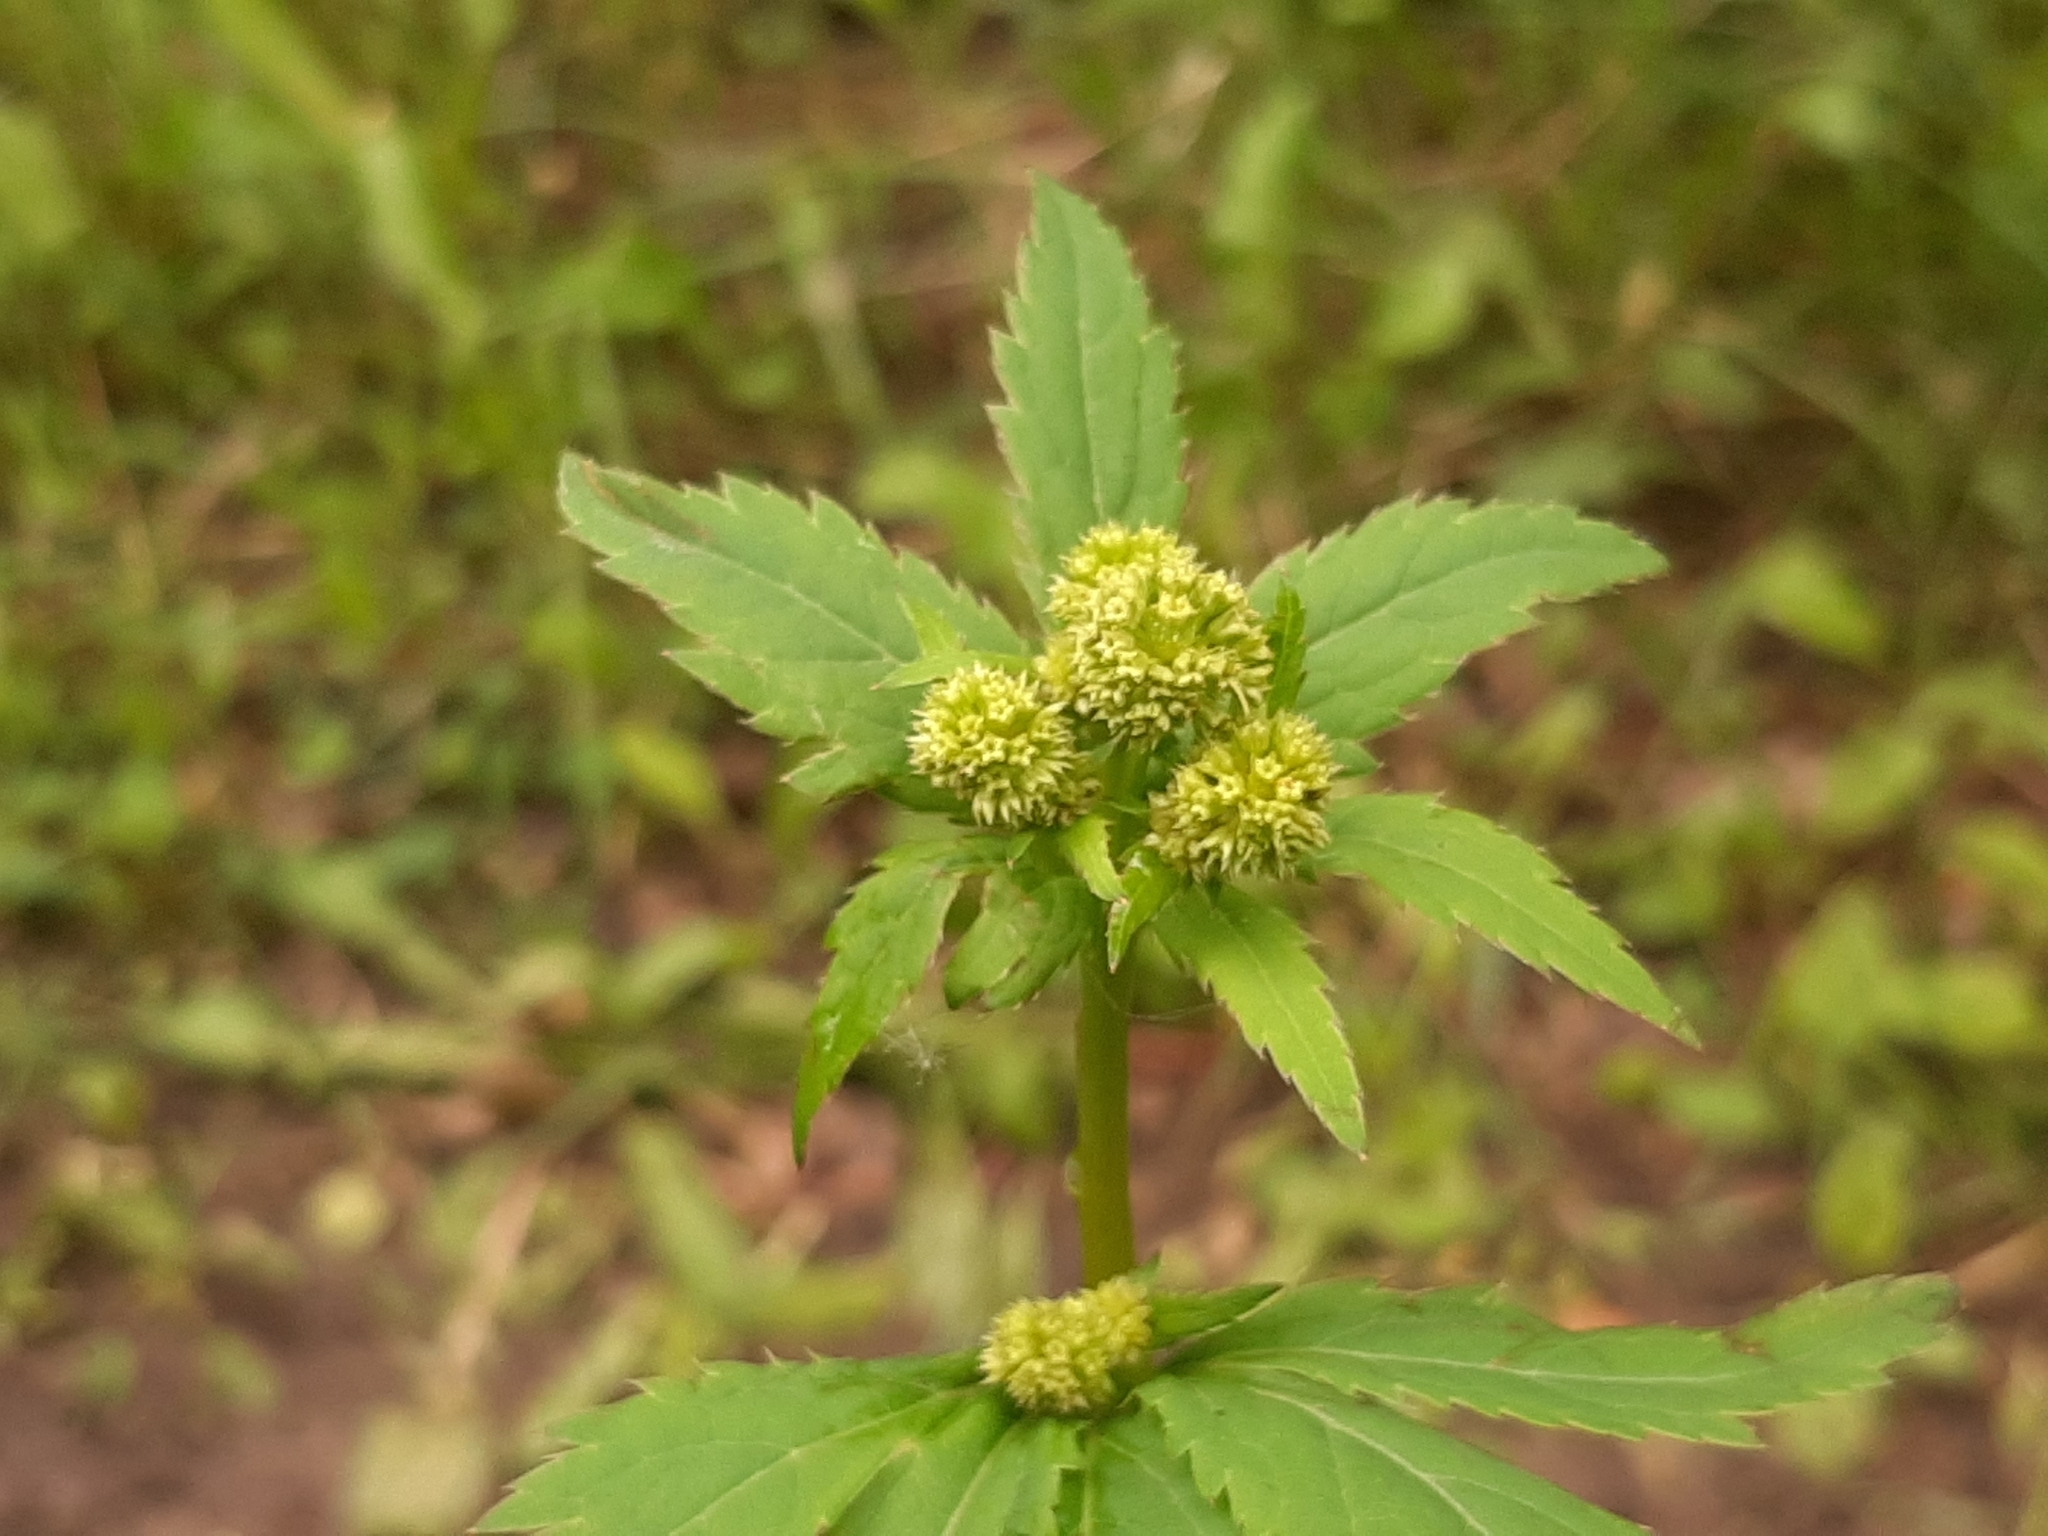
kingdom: Plantae
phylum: Tracheophyta
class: Magnoliopsida
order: Apiales
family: Apiaceae
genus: Sanicula
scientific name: Sanicula marilandica
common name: Black snakeroot
